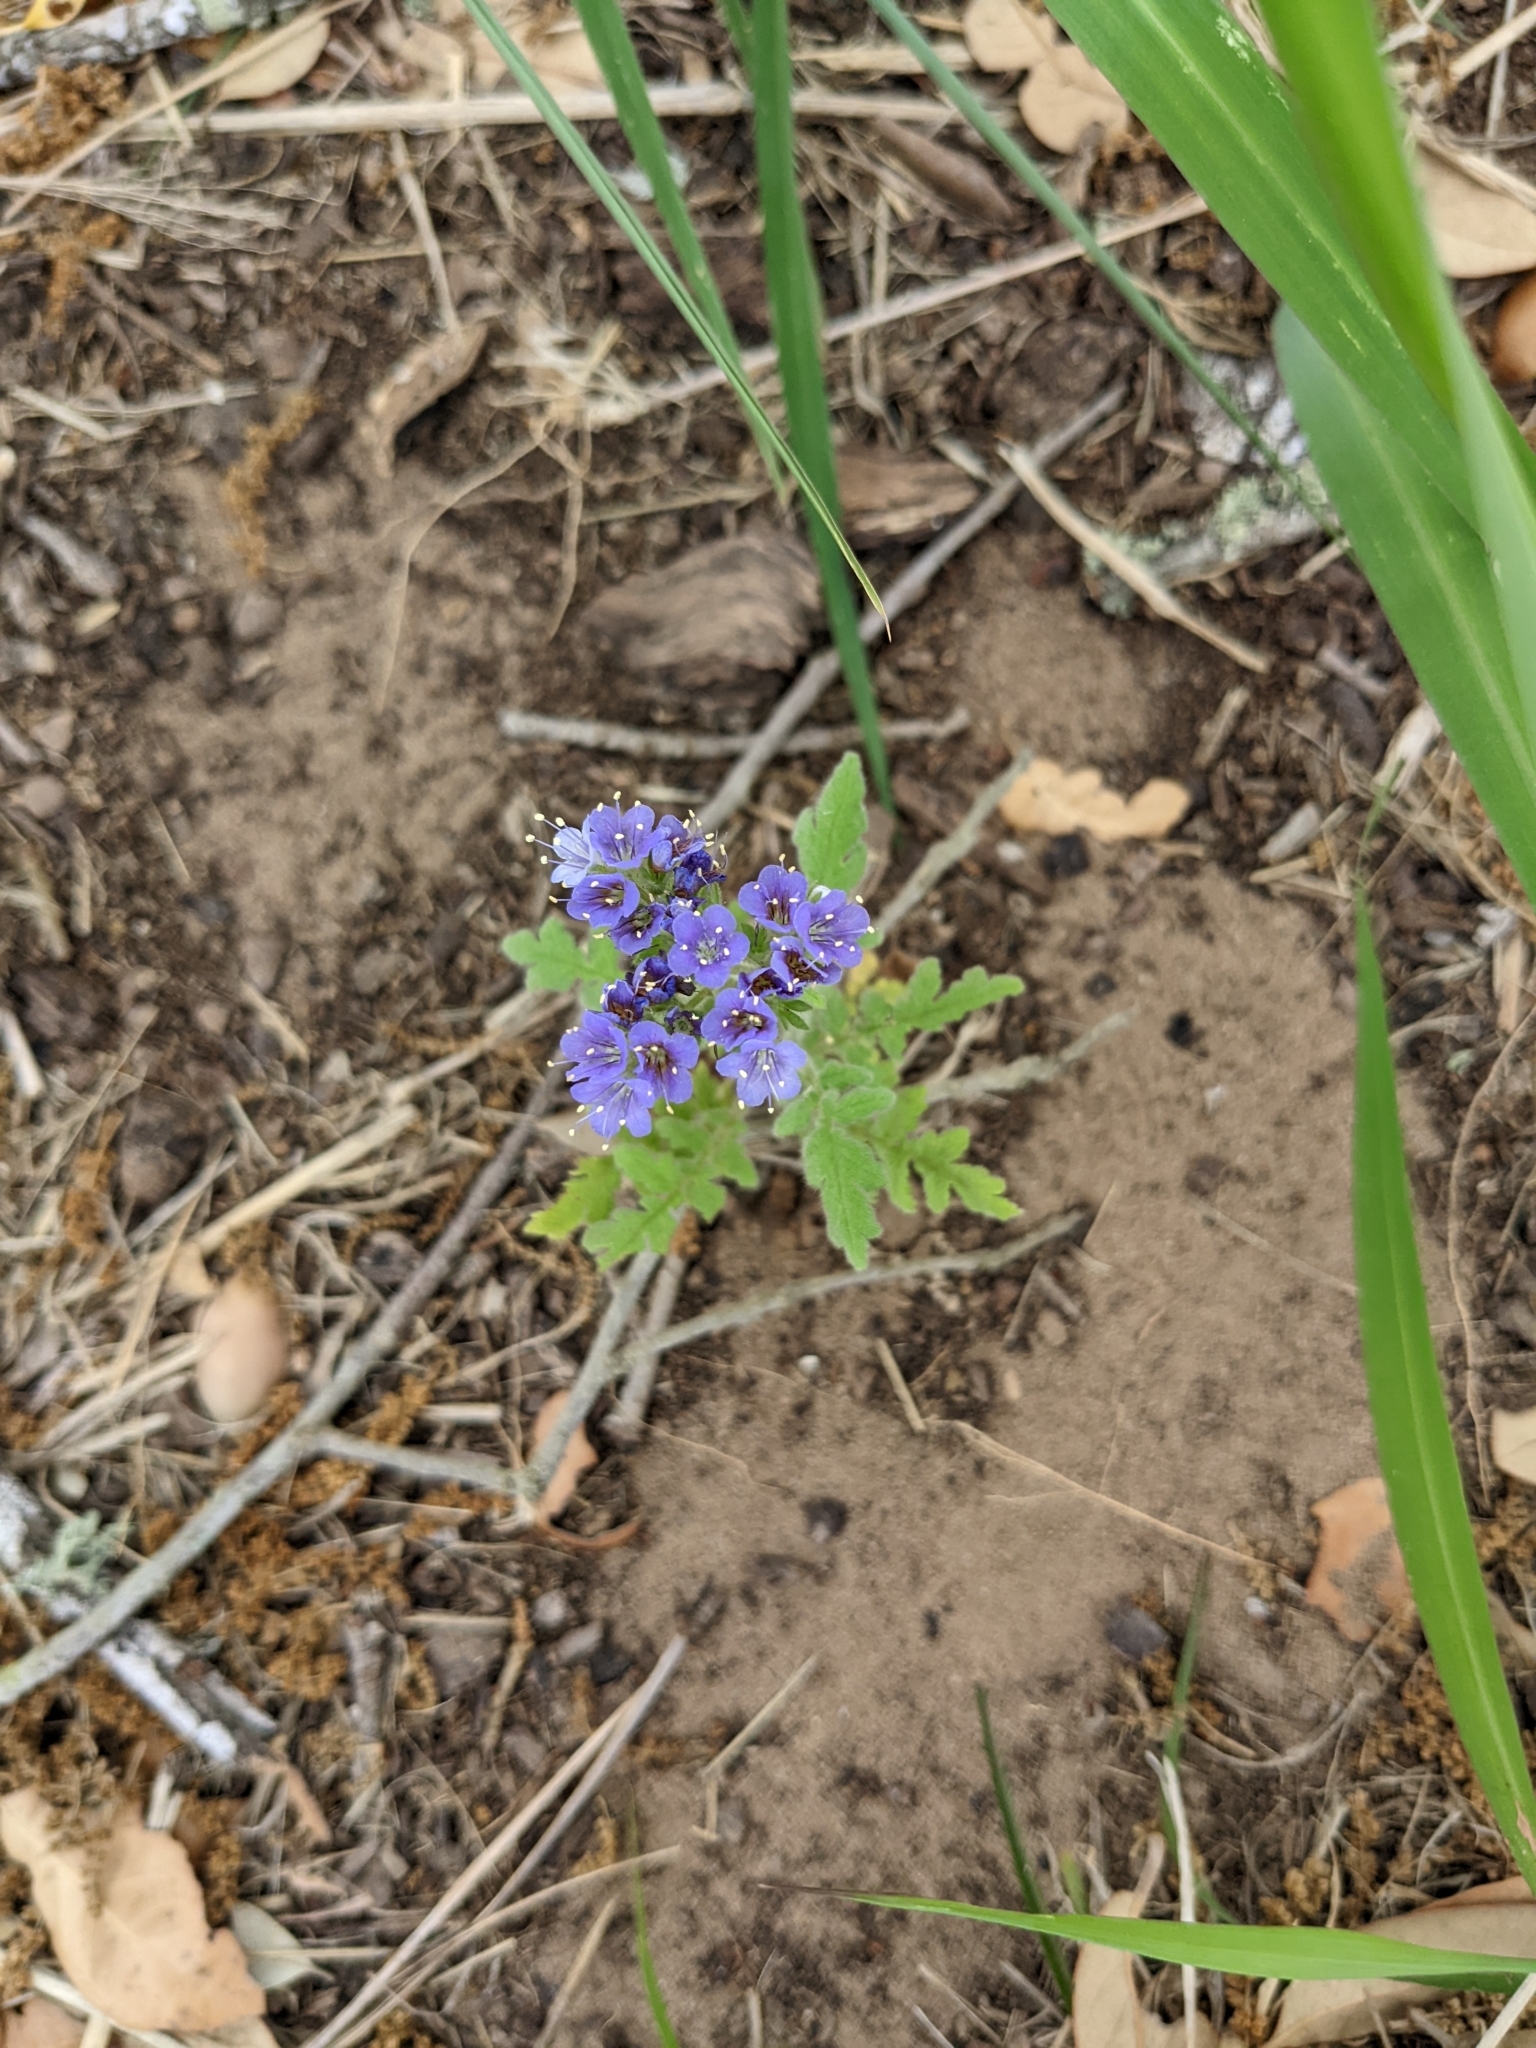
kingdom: Plantae
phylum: Tracheophyta
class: Magnoliopsida
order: Boraginales
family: Hydrophyllaceae
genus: Phacelia
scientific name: Phacelia congesta
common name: Blue curls
